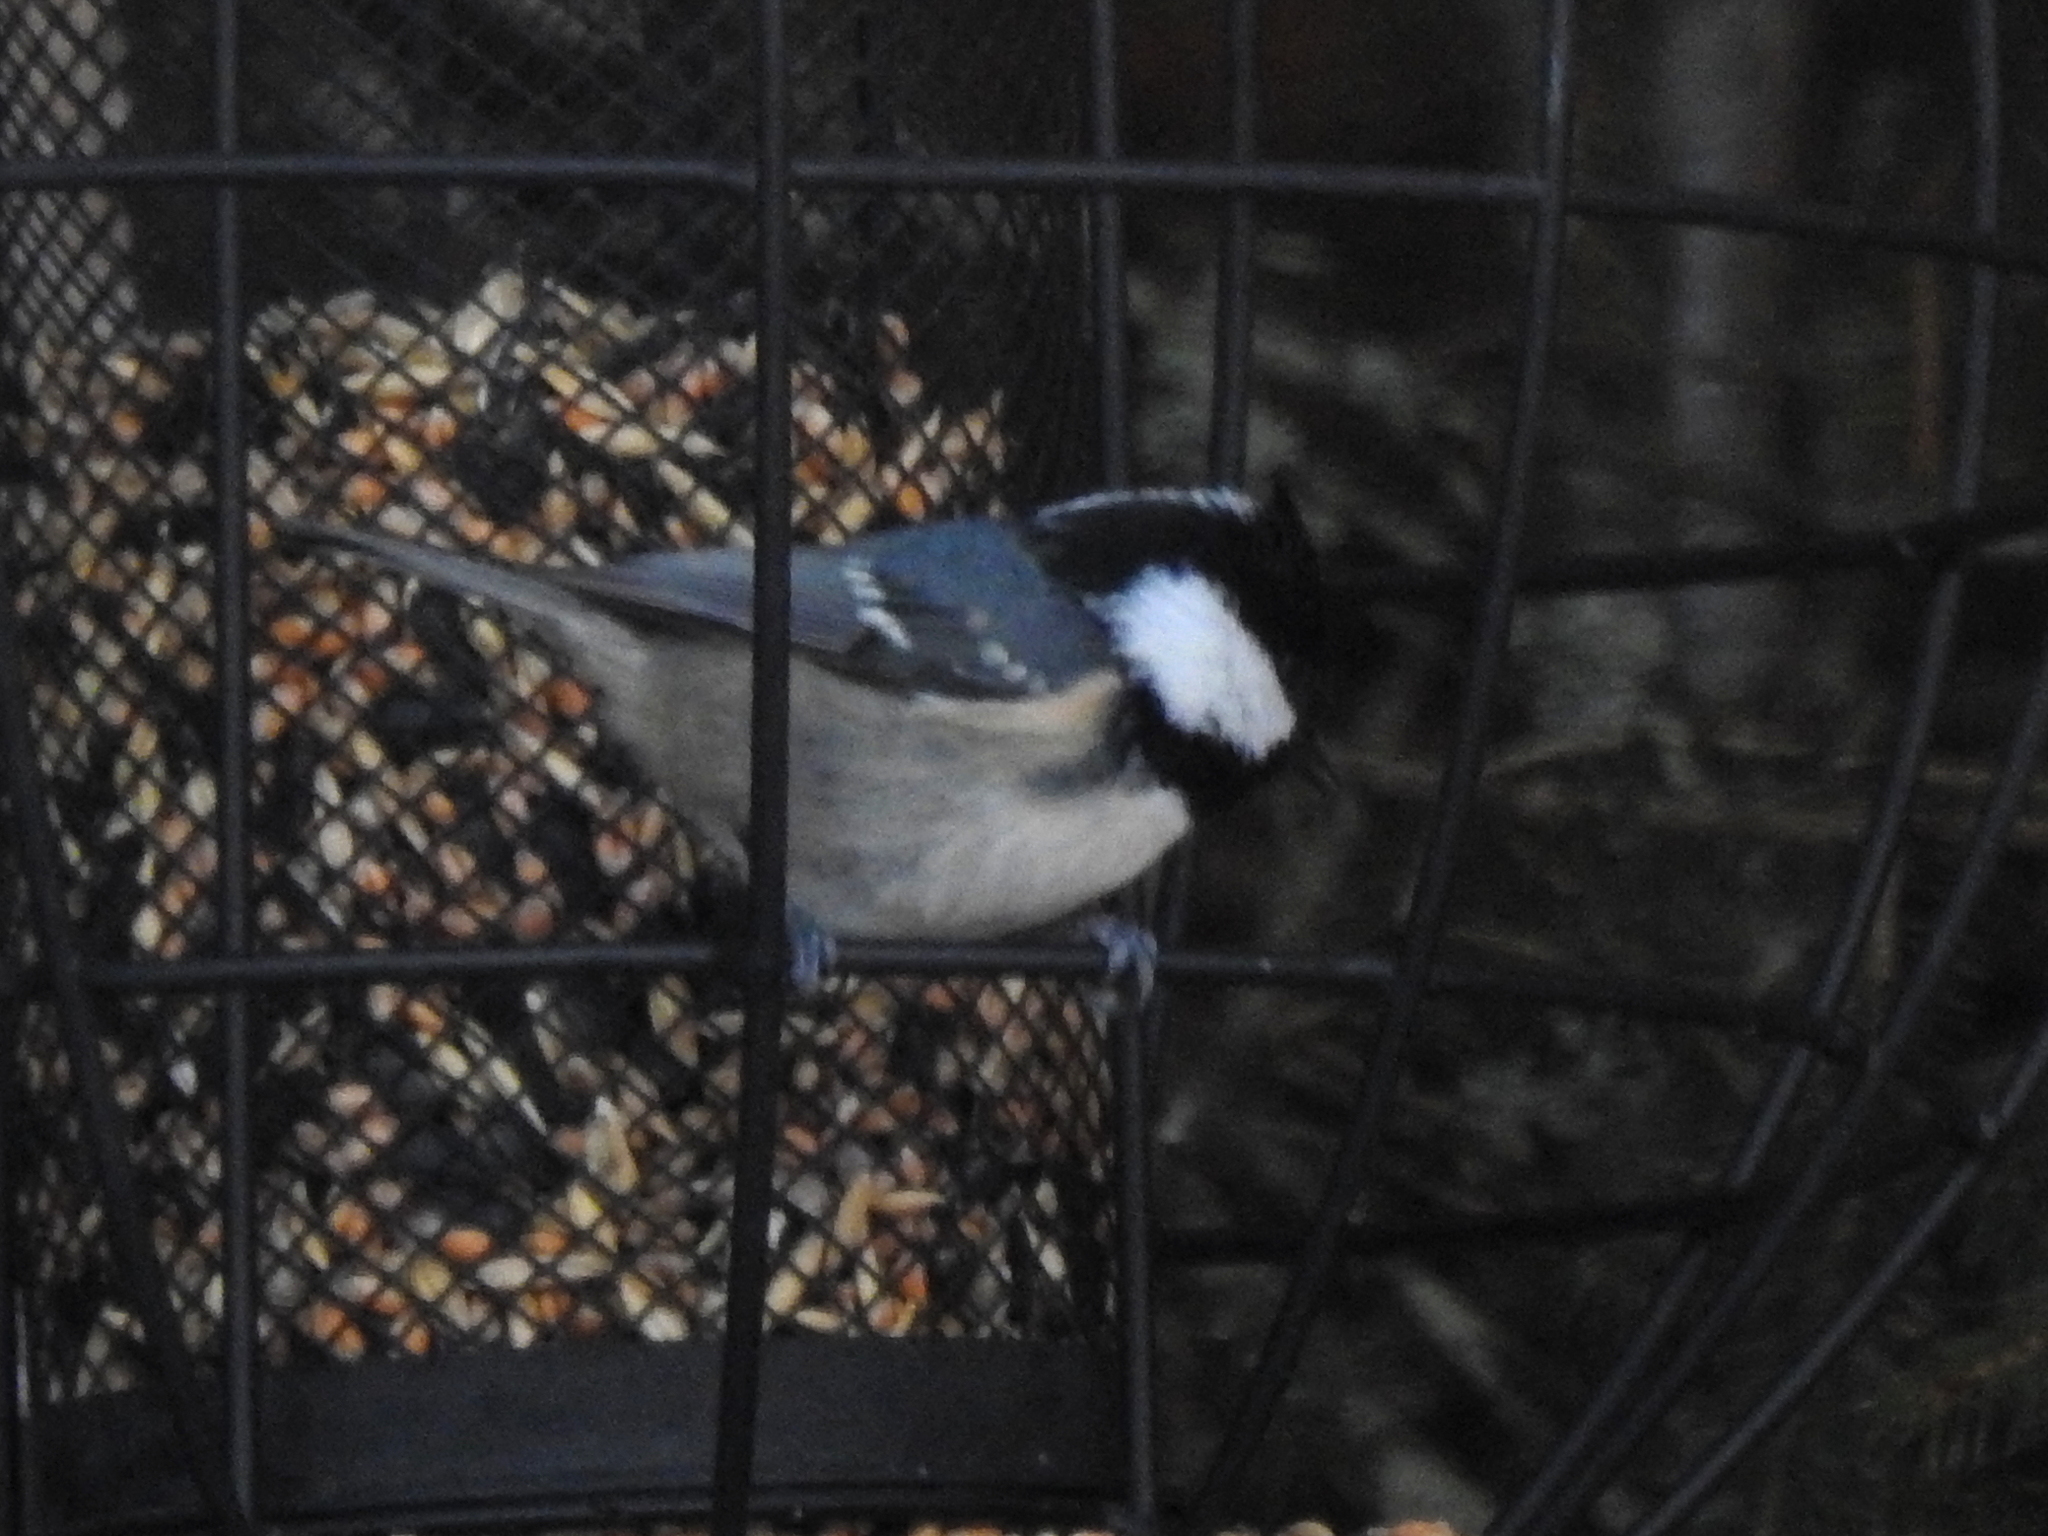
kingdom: Animalia
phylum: Chordata
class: Aves
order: Passeriformes
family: Paridae
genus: Periparus
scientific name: Periparus ater
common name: Coal tit
